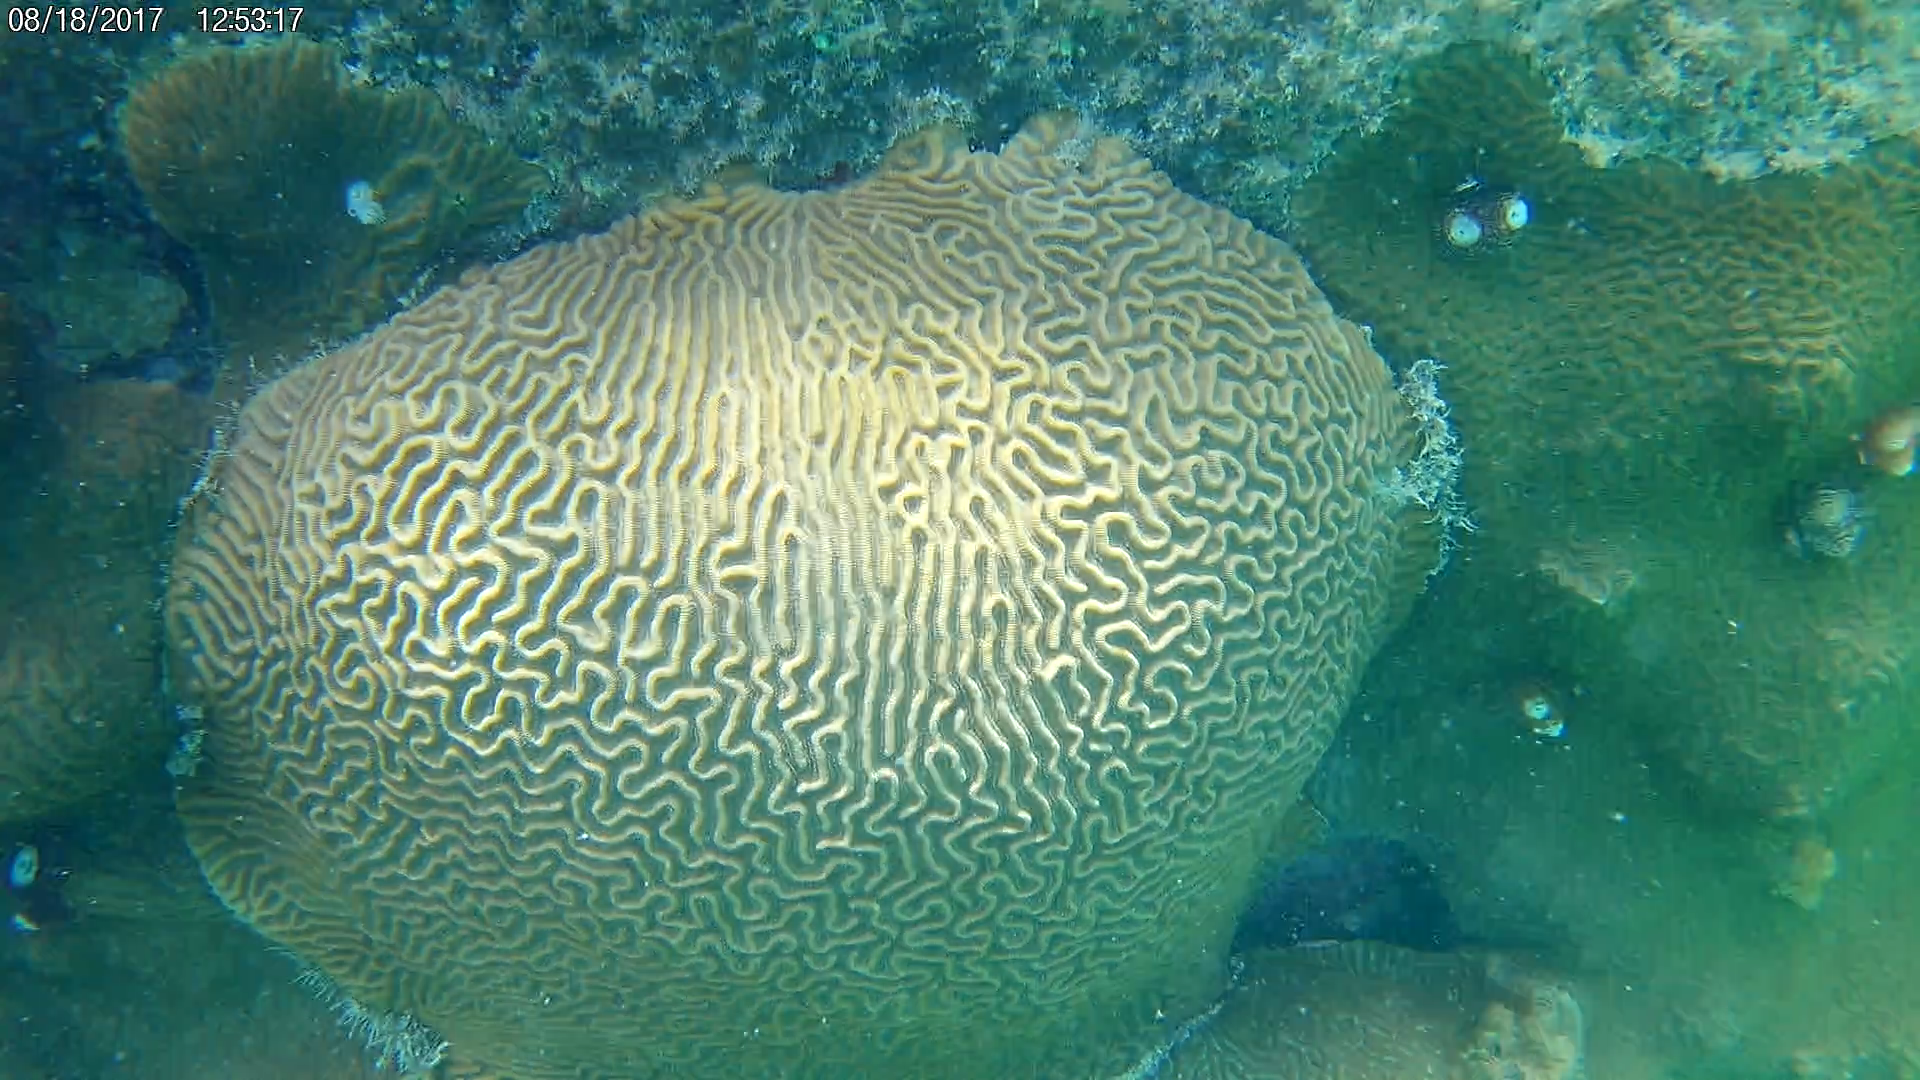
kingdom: Animalia
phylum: Cnidaria
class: Anthozoa
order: Scleractinia
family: Faviidae
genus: Pseudodiploria
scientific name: Pseudodiploria strigosa
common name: Symmetrical brain coral
